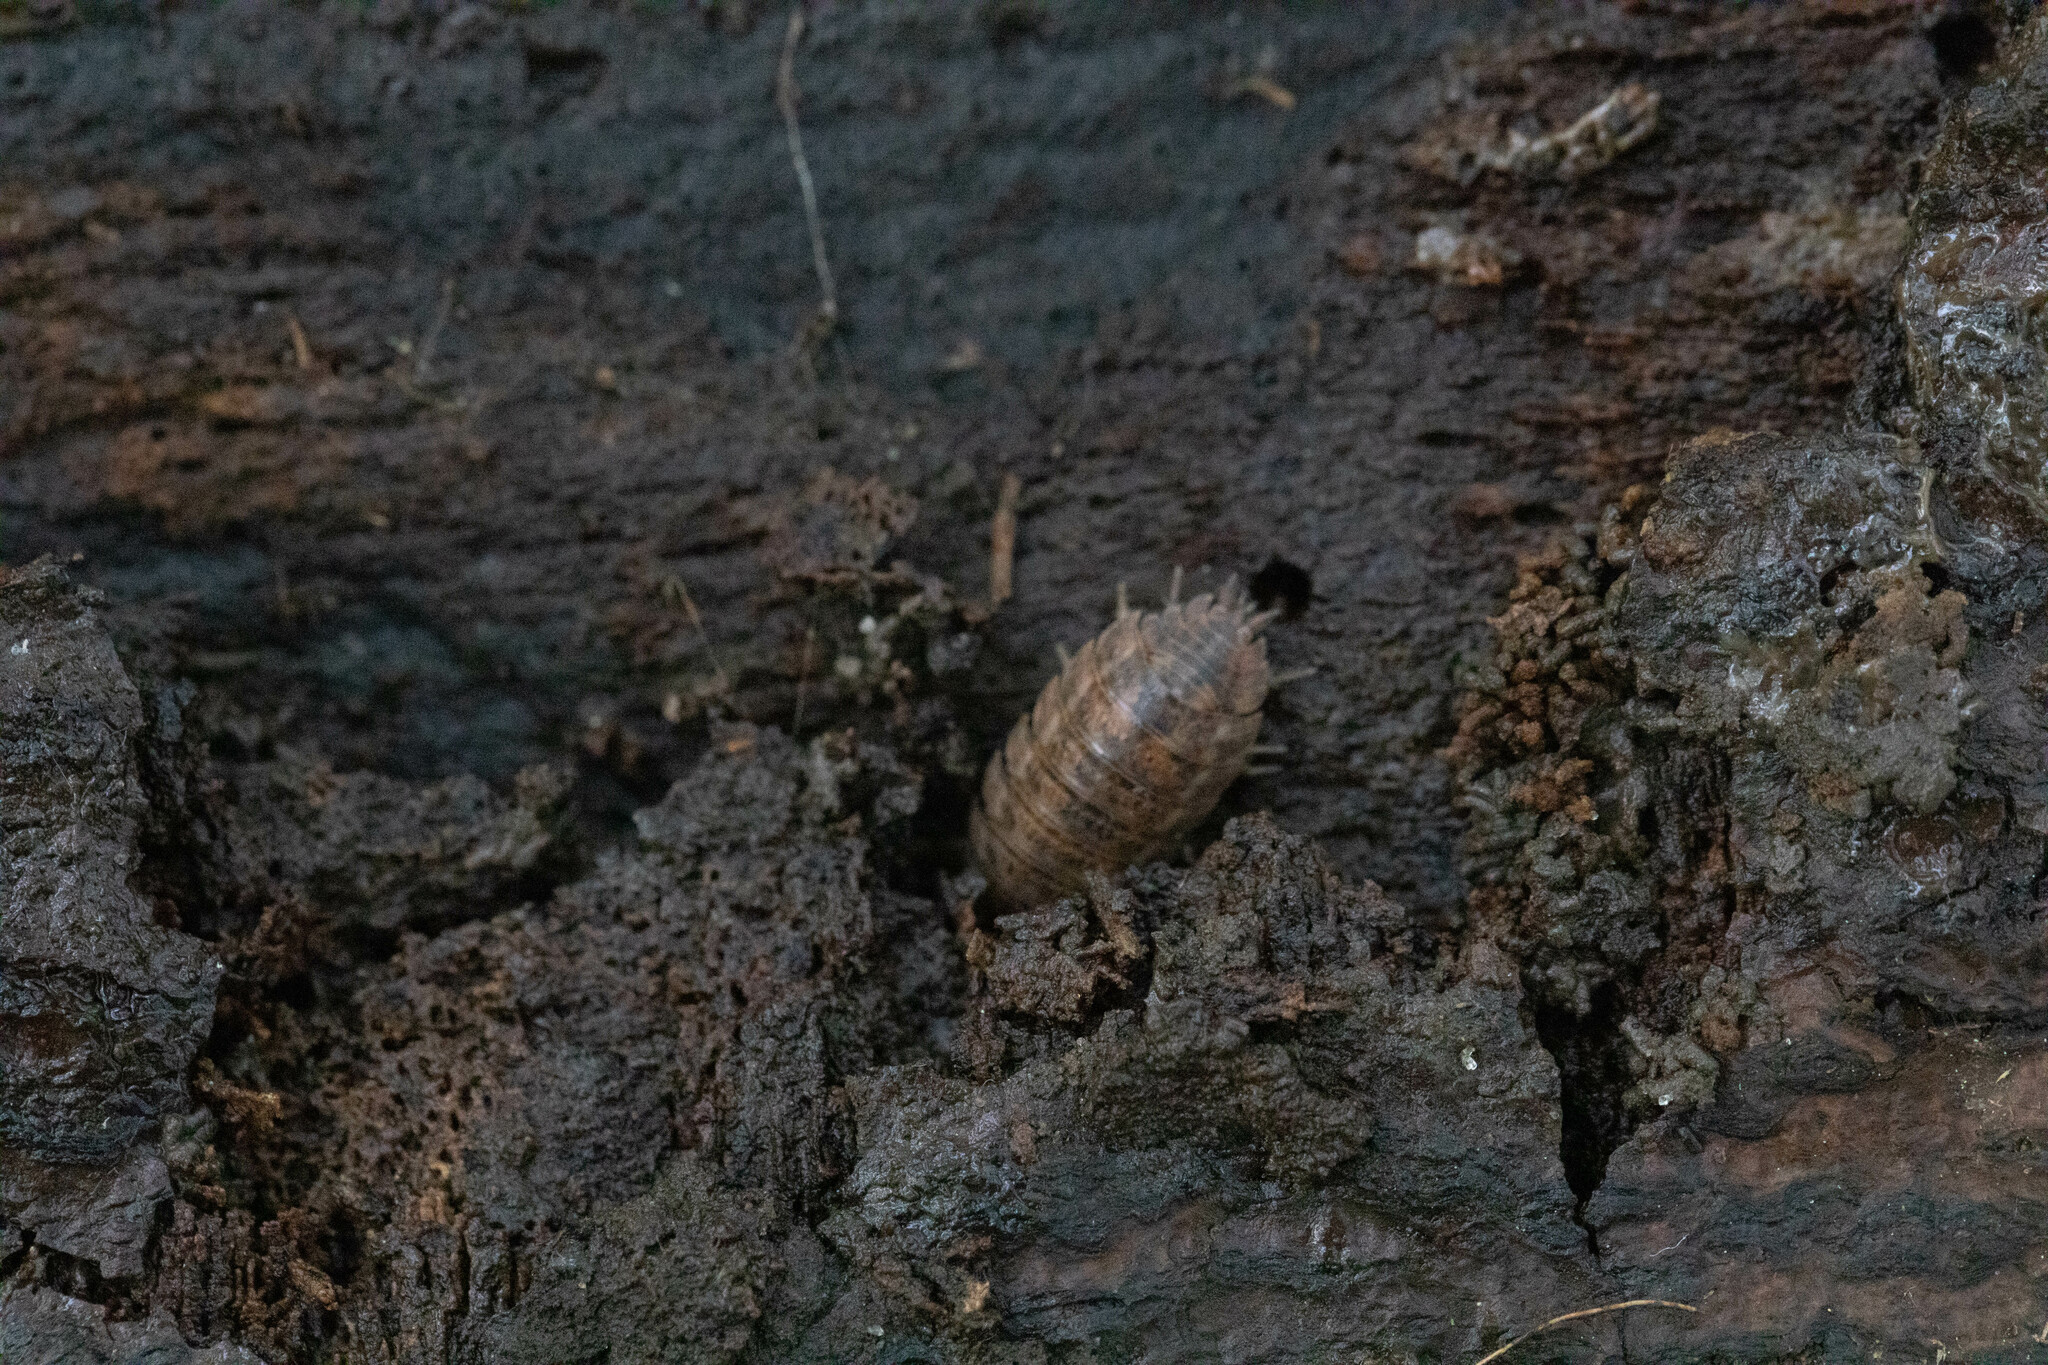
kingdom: Animalia
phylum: Arthropoda
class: Malacostraca
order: Isopoda
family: Trachelipodidae
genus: Trachelipus
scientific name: Trachelipus rathkii
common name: Isopod
